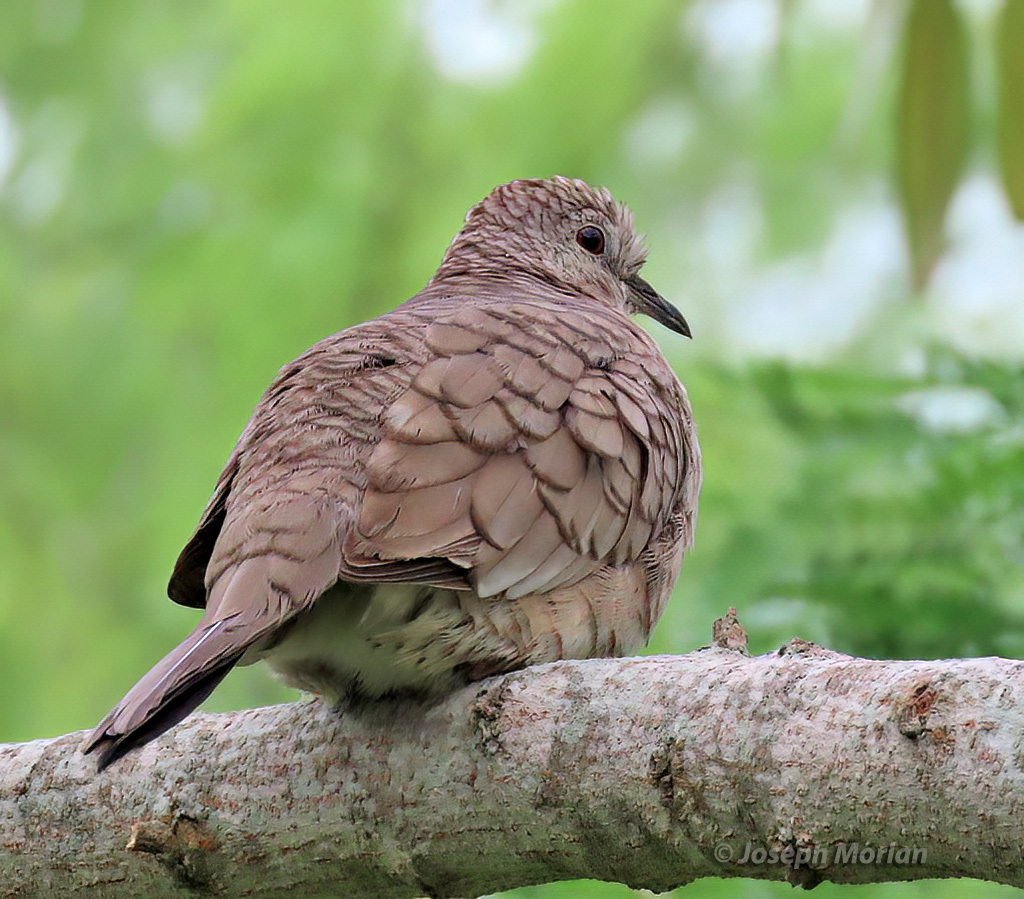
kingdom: Animalia
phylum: Chordata
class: Aves
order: Columbiformes
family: Columbidae
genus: Columbina
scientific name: Columbina inca
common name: Inca dove
